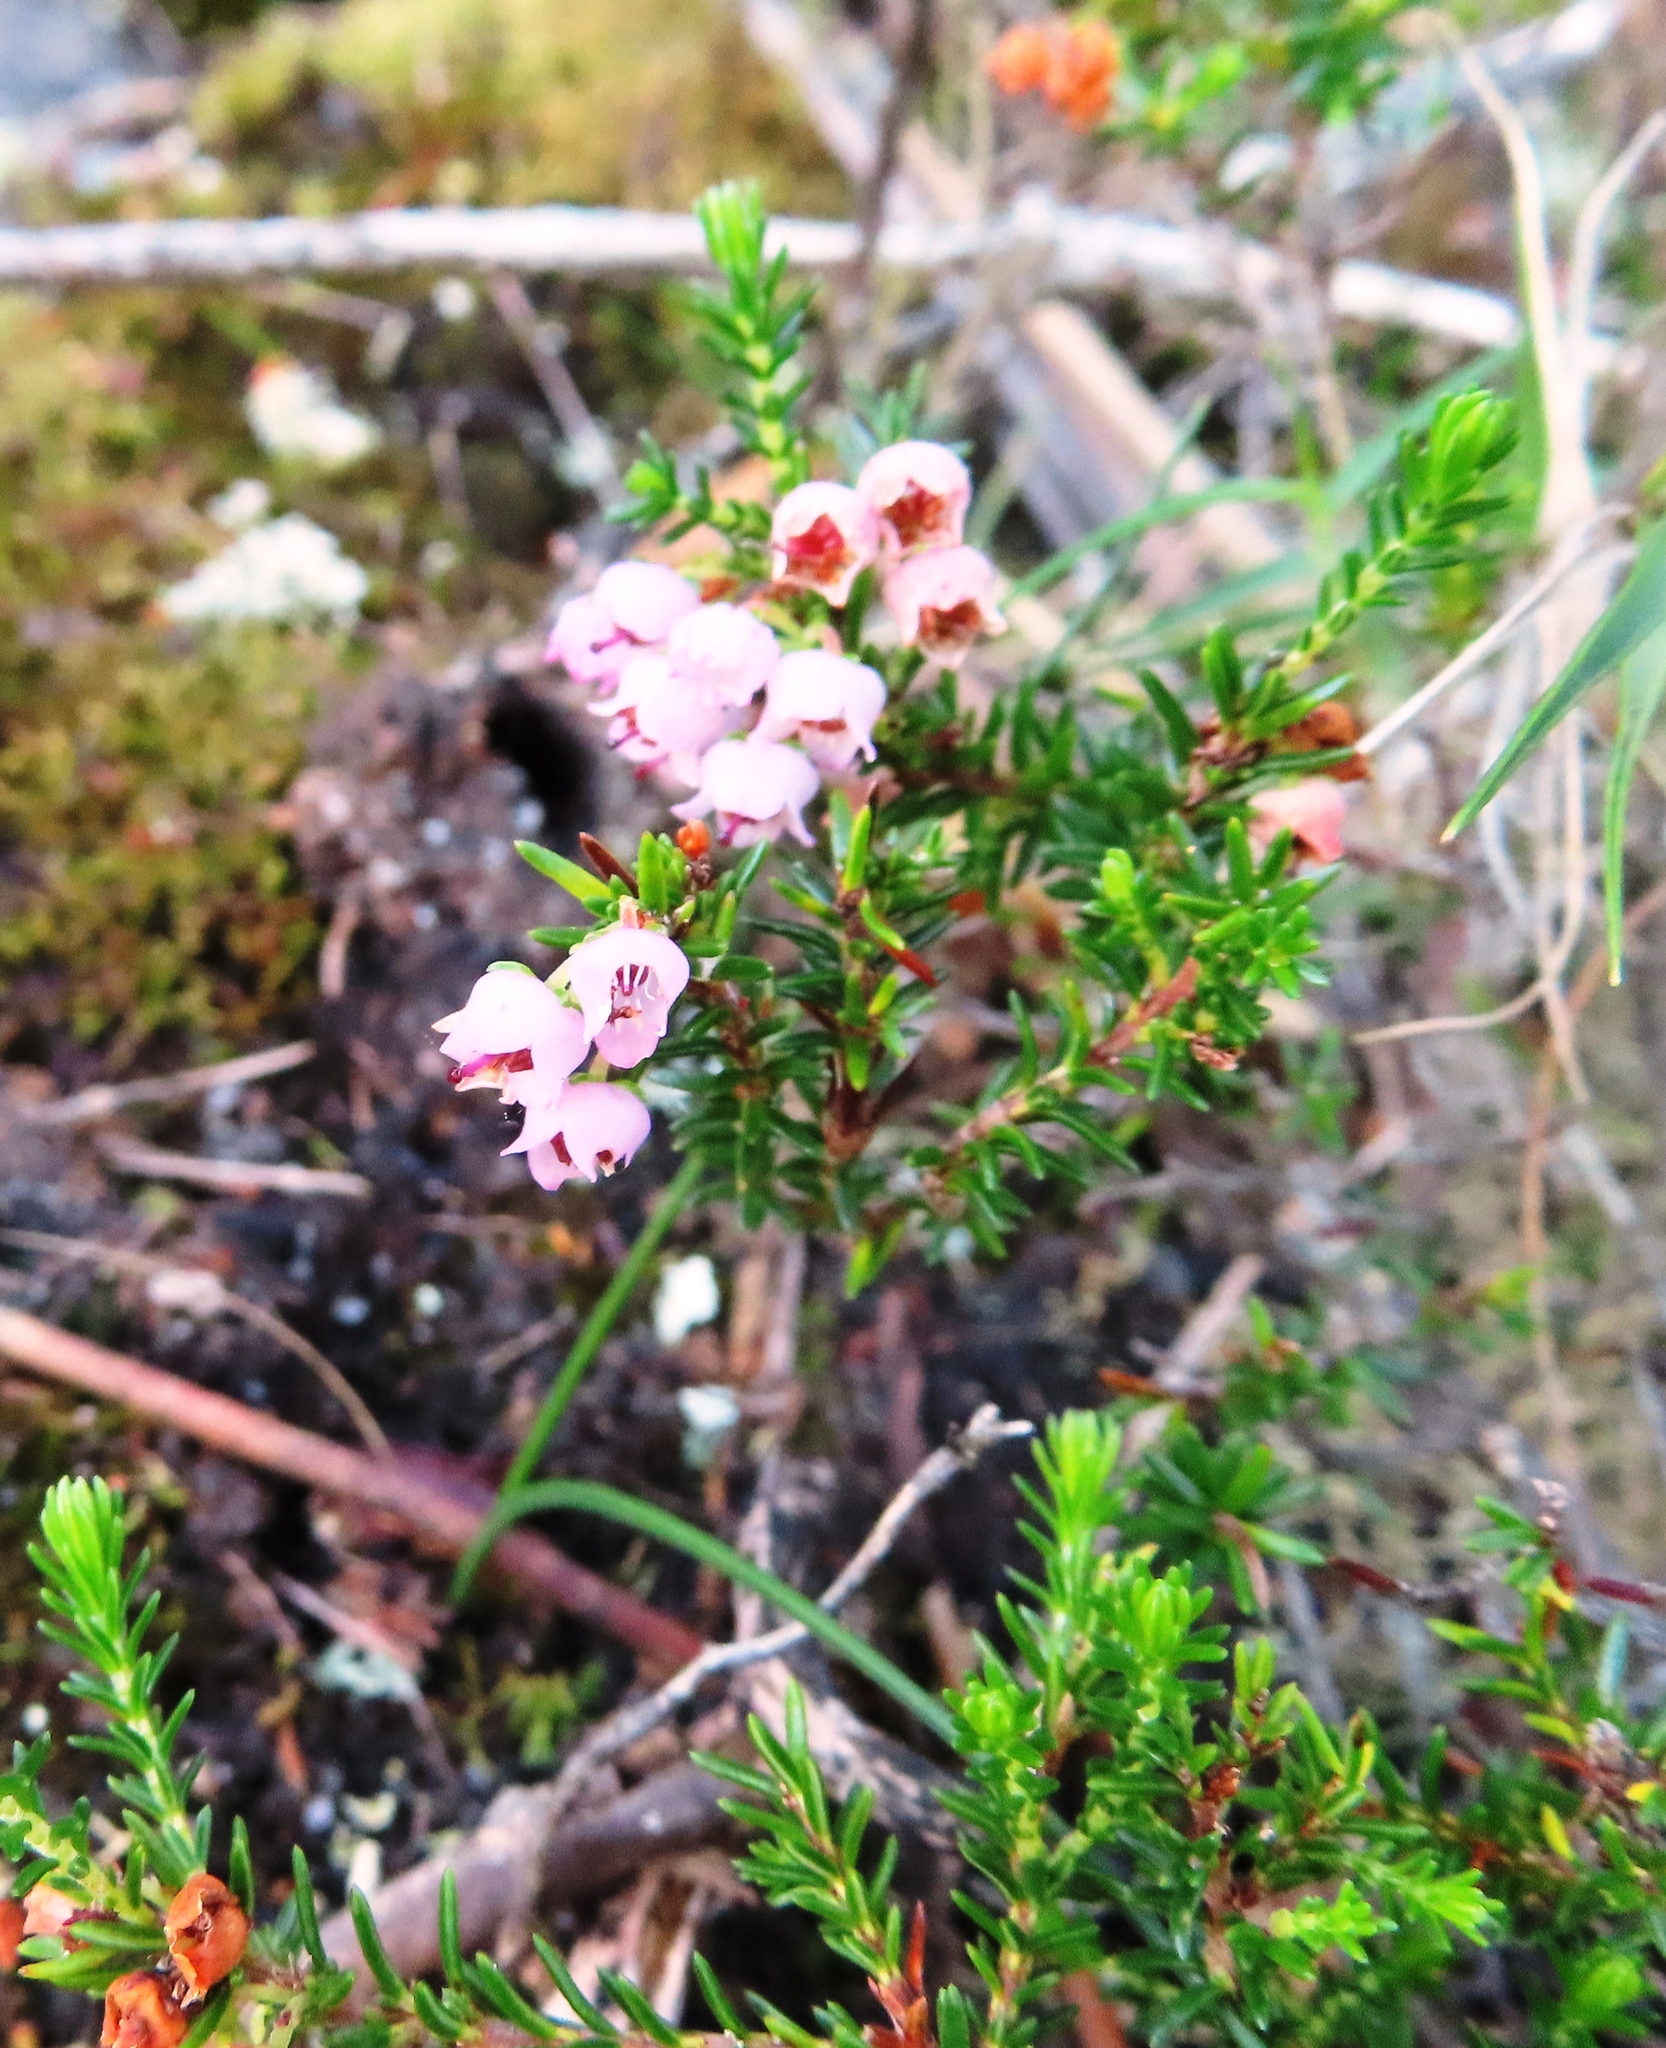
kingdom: Plantae
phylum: Tracheophyta
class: Magnoliopsida
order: Ericales
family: Ericaceae
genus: Erica
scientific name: Erica curvirostris
